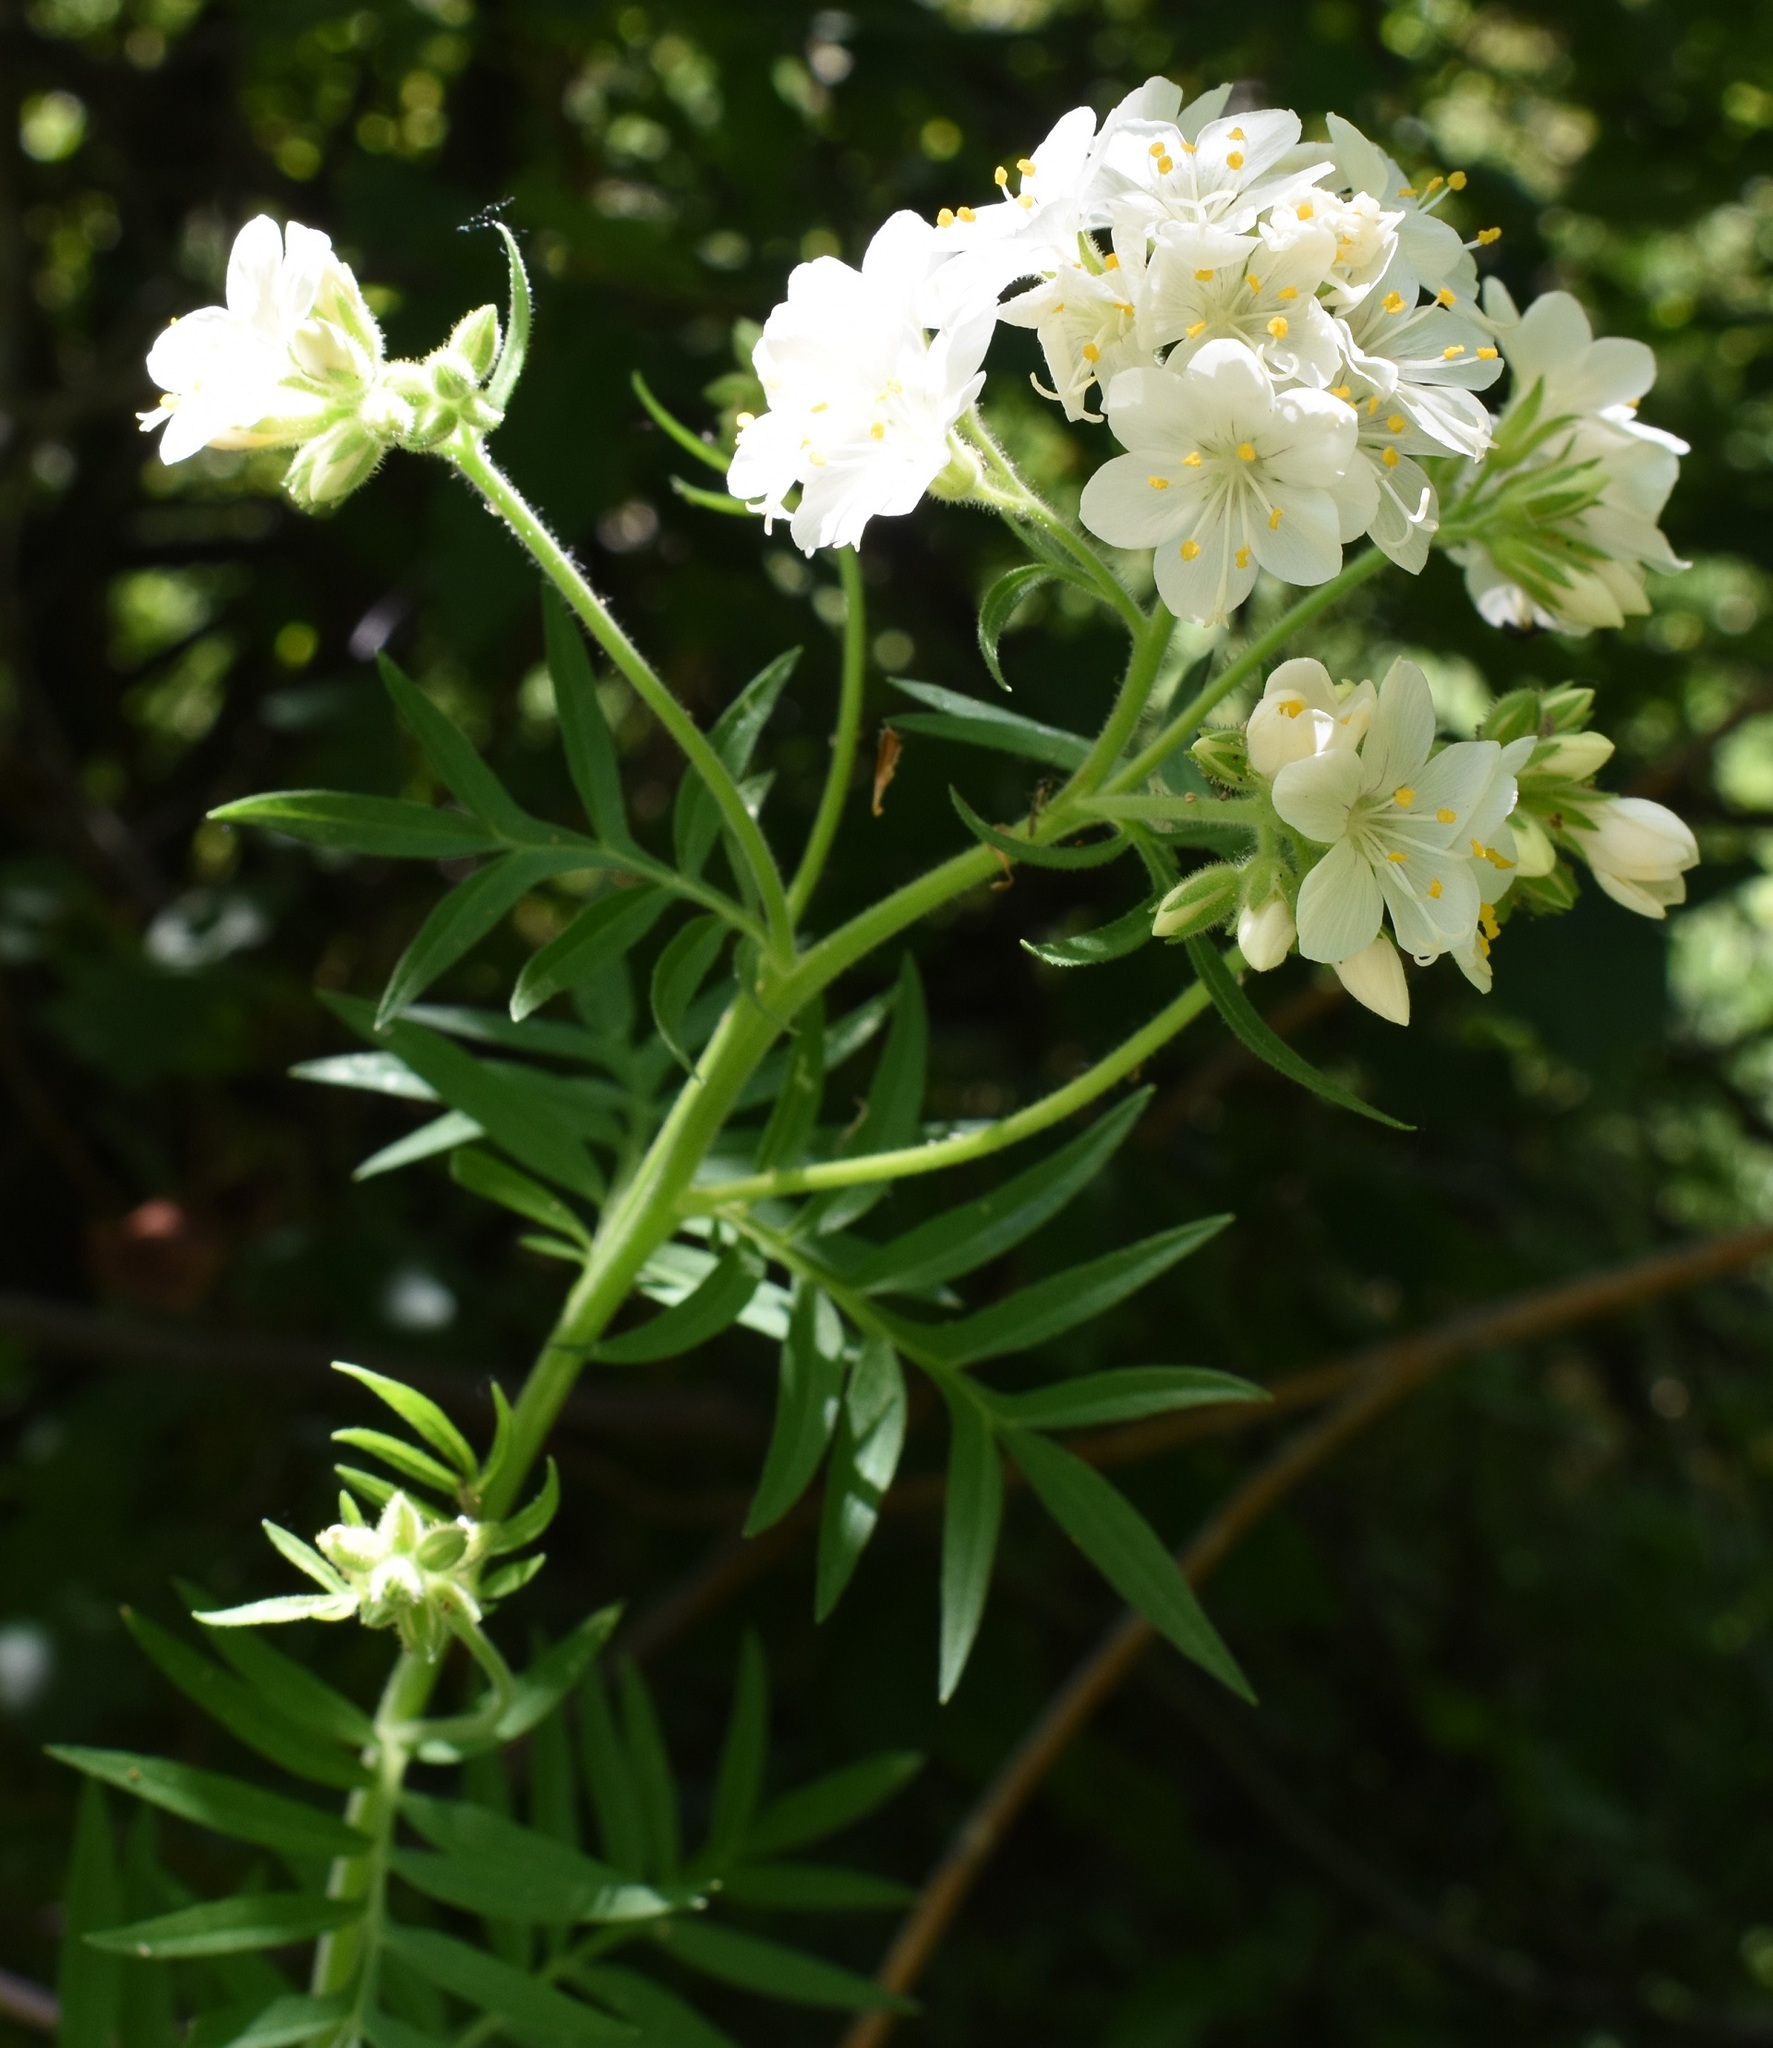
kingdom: Plantae
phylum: Tracheophyta
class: Magnoliopsida
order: Ericales
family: Polemoniaceae
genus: Polemonium
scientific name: Polemonium foliosissimum
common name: Leafy jacob's-ladder
